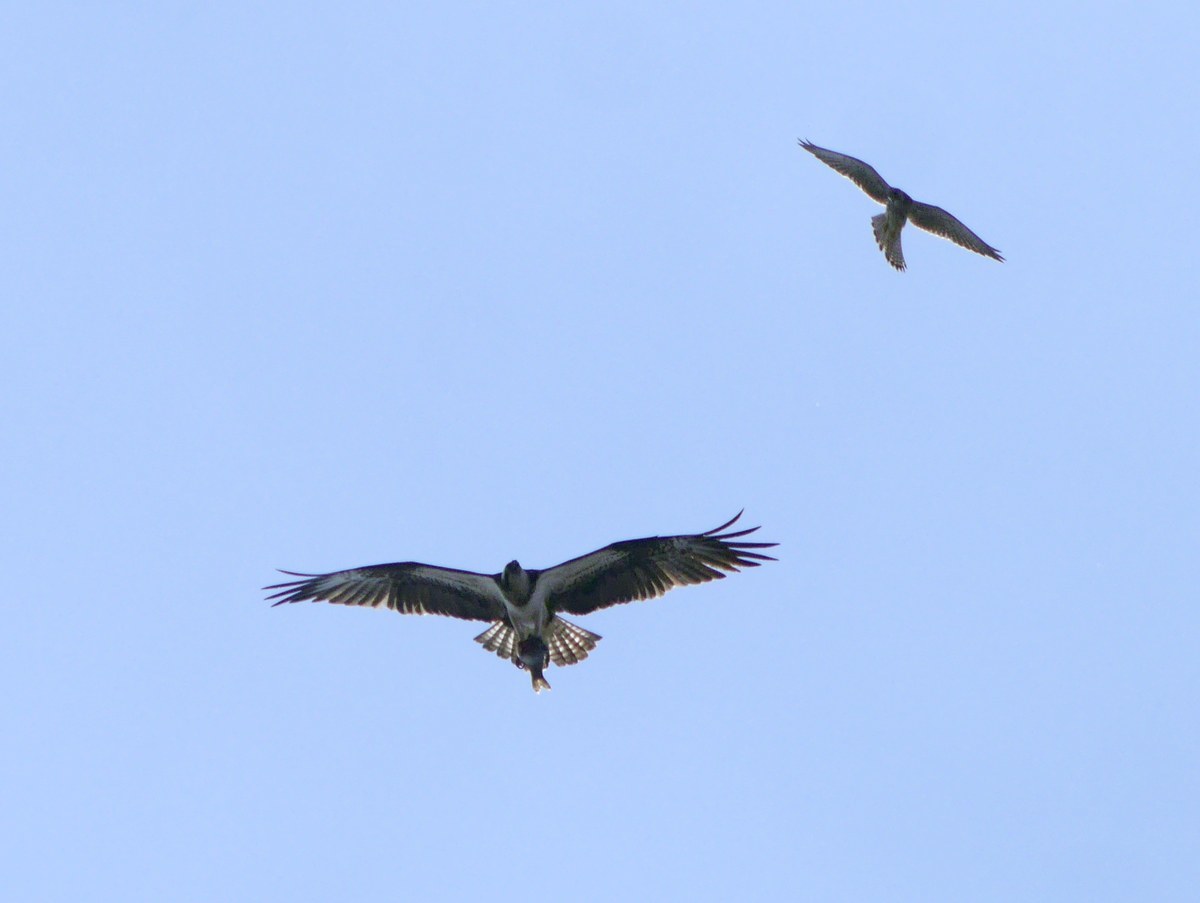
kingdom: Animalia
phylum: Chordata
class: Aves
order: Accipitriformes
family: Pandionidae
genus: Pandion
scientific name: Pandion haliaetus
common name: Osprey
